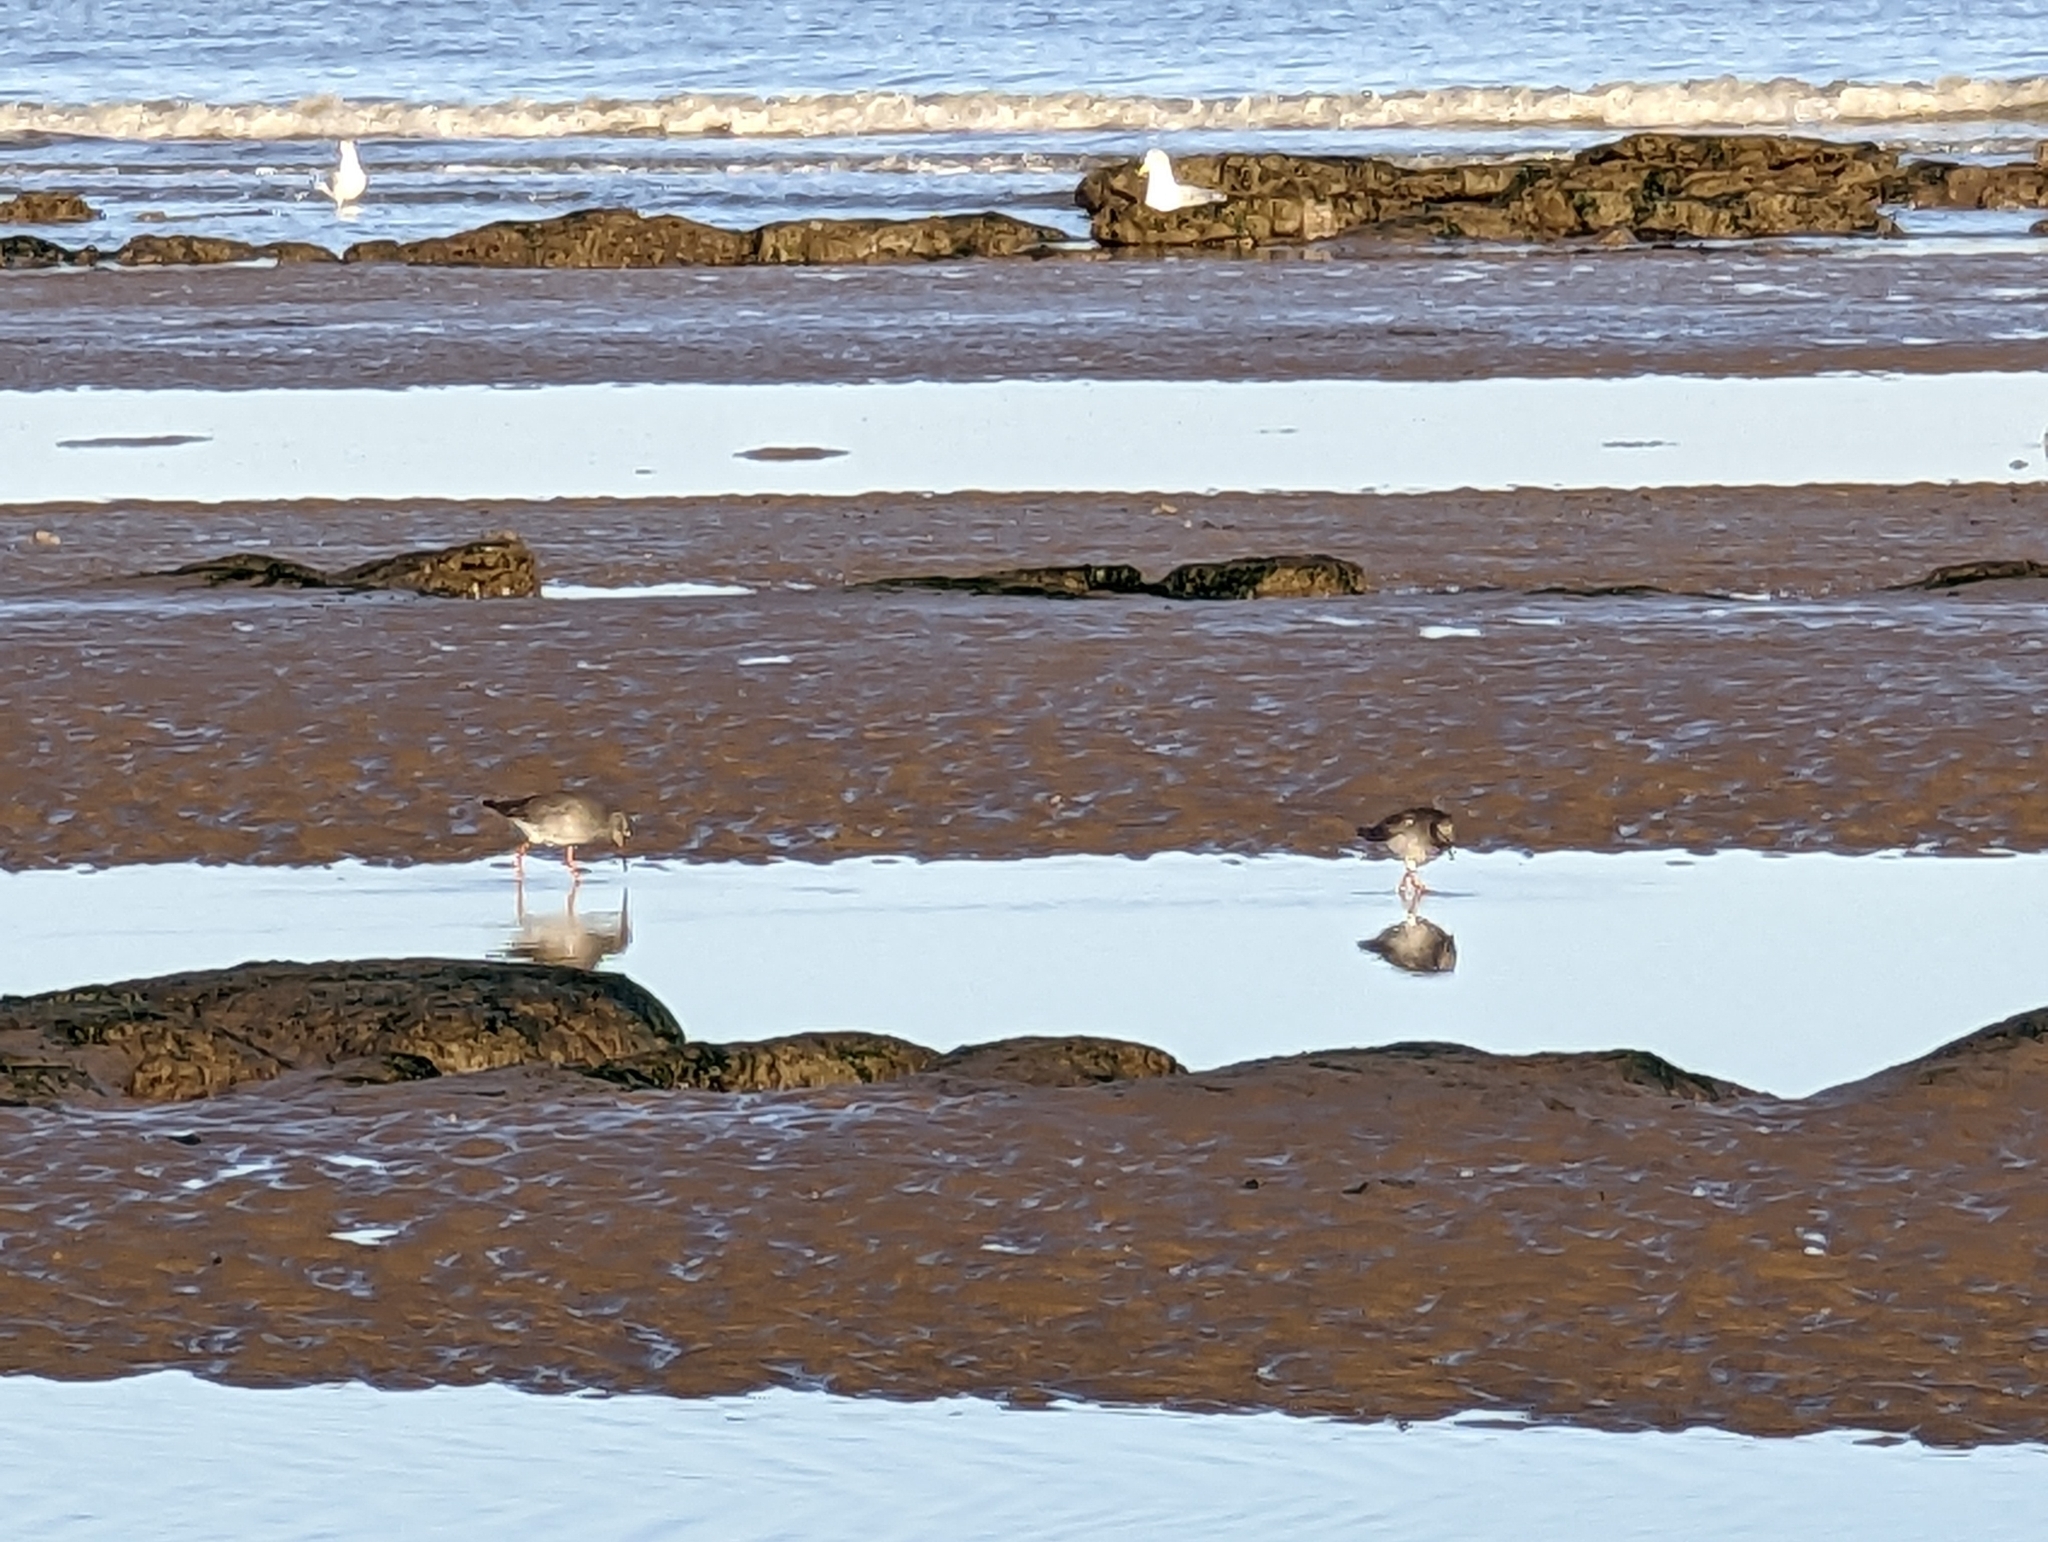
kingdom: Animalia
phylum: Chordata
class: Aves
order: Charadriiformes
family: Scolopacidae
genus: Tringa
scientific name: Tringa totanus
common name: Common redshank
